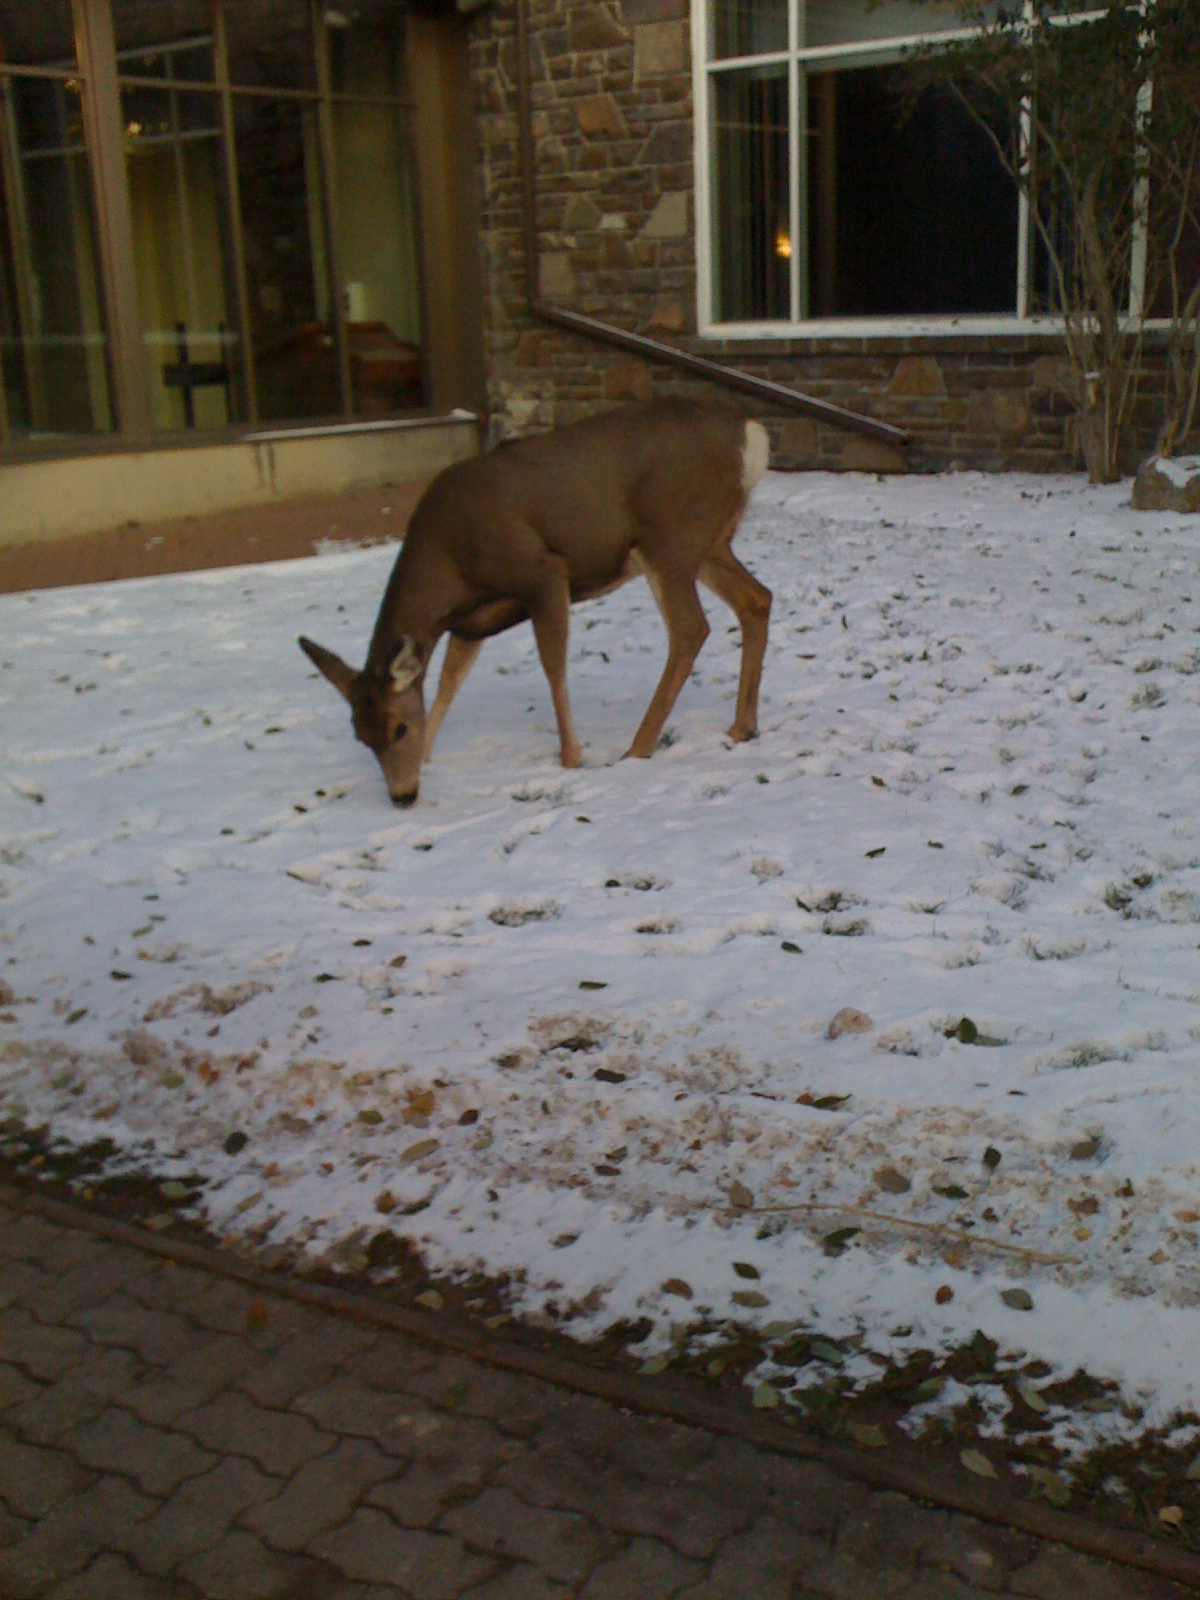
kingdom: Animalia
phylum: Chordata
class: Mammalia
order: Artiodactyla
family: Cervidae
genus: Odocoileus
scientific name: Odocoileus hemionus
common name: Mule deer
